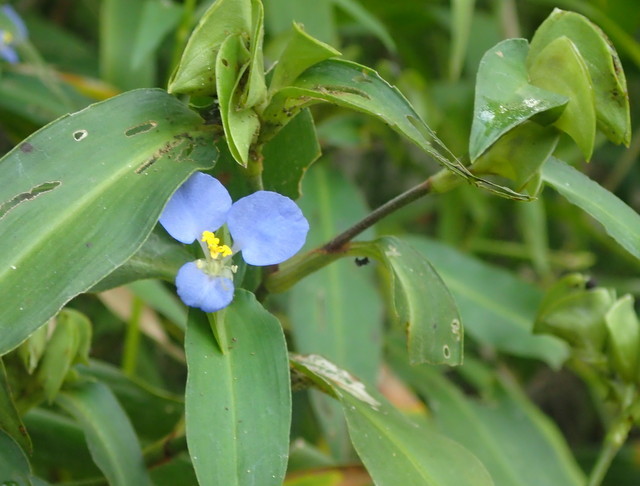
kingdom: Plantae
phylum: Tracheophyta
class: Liliopsida
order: Commelinales
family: Commelinaceae
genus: Commelina
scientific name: Commelina virginica
